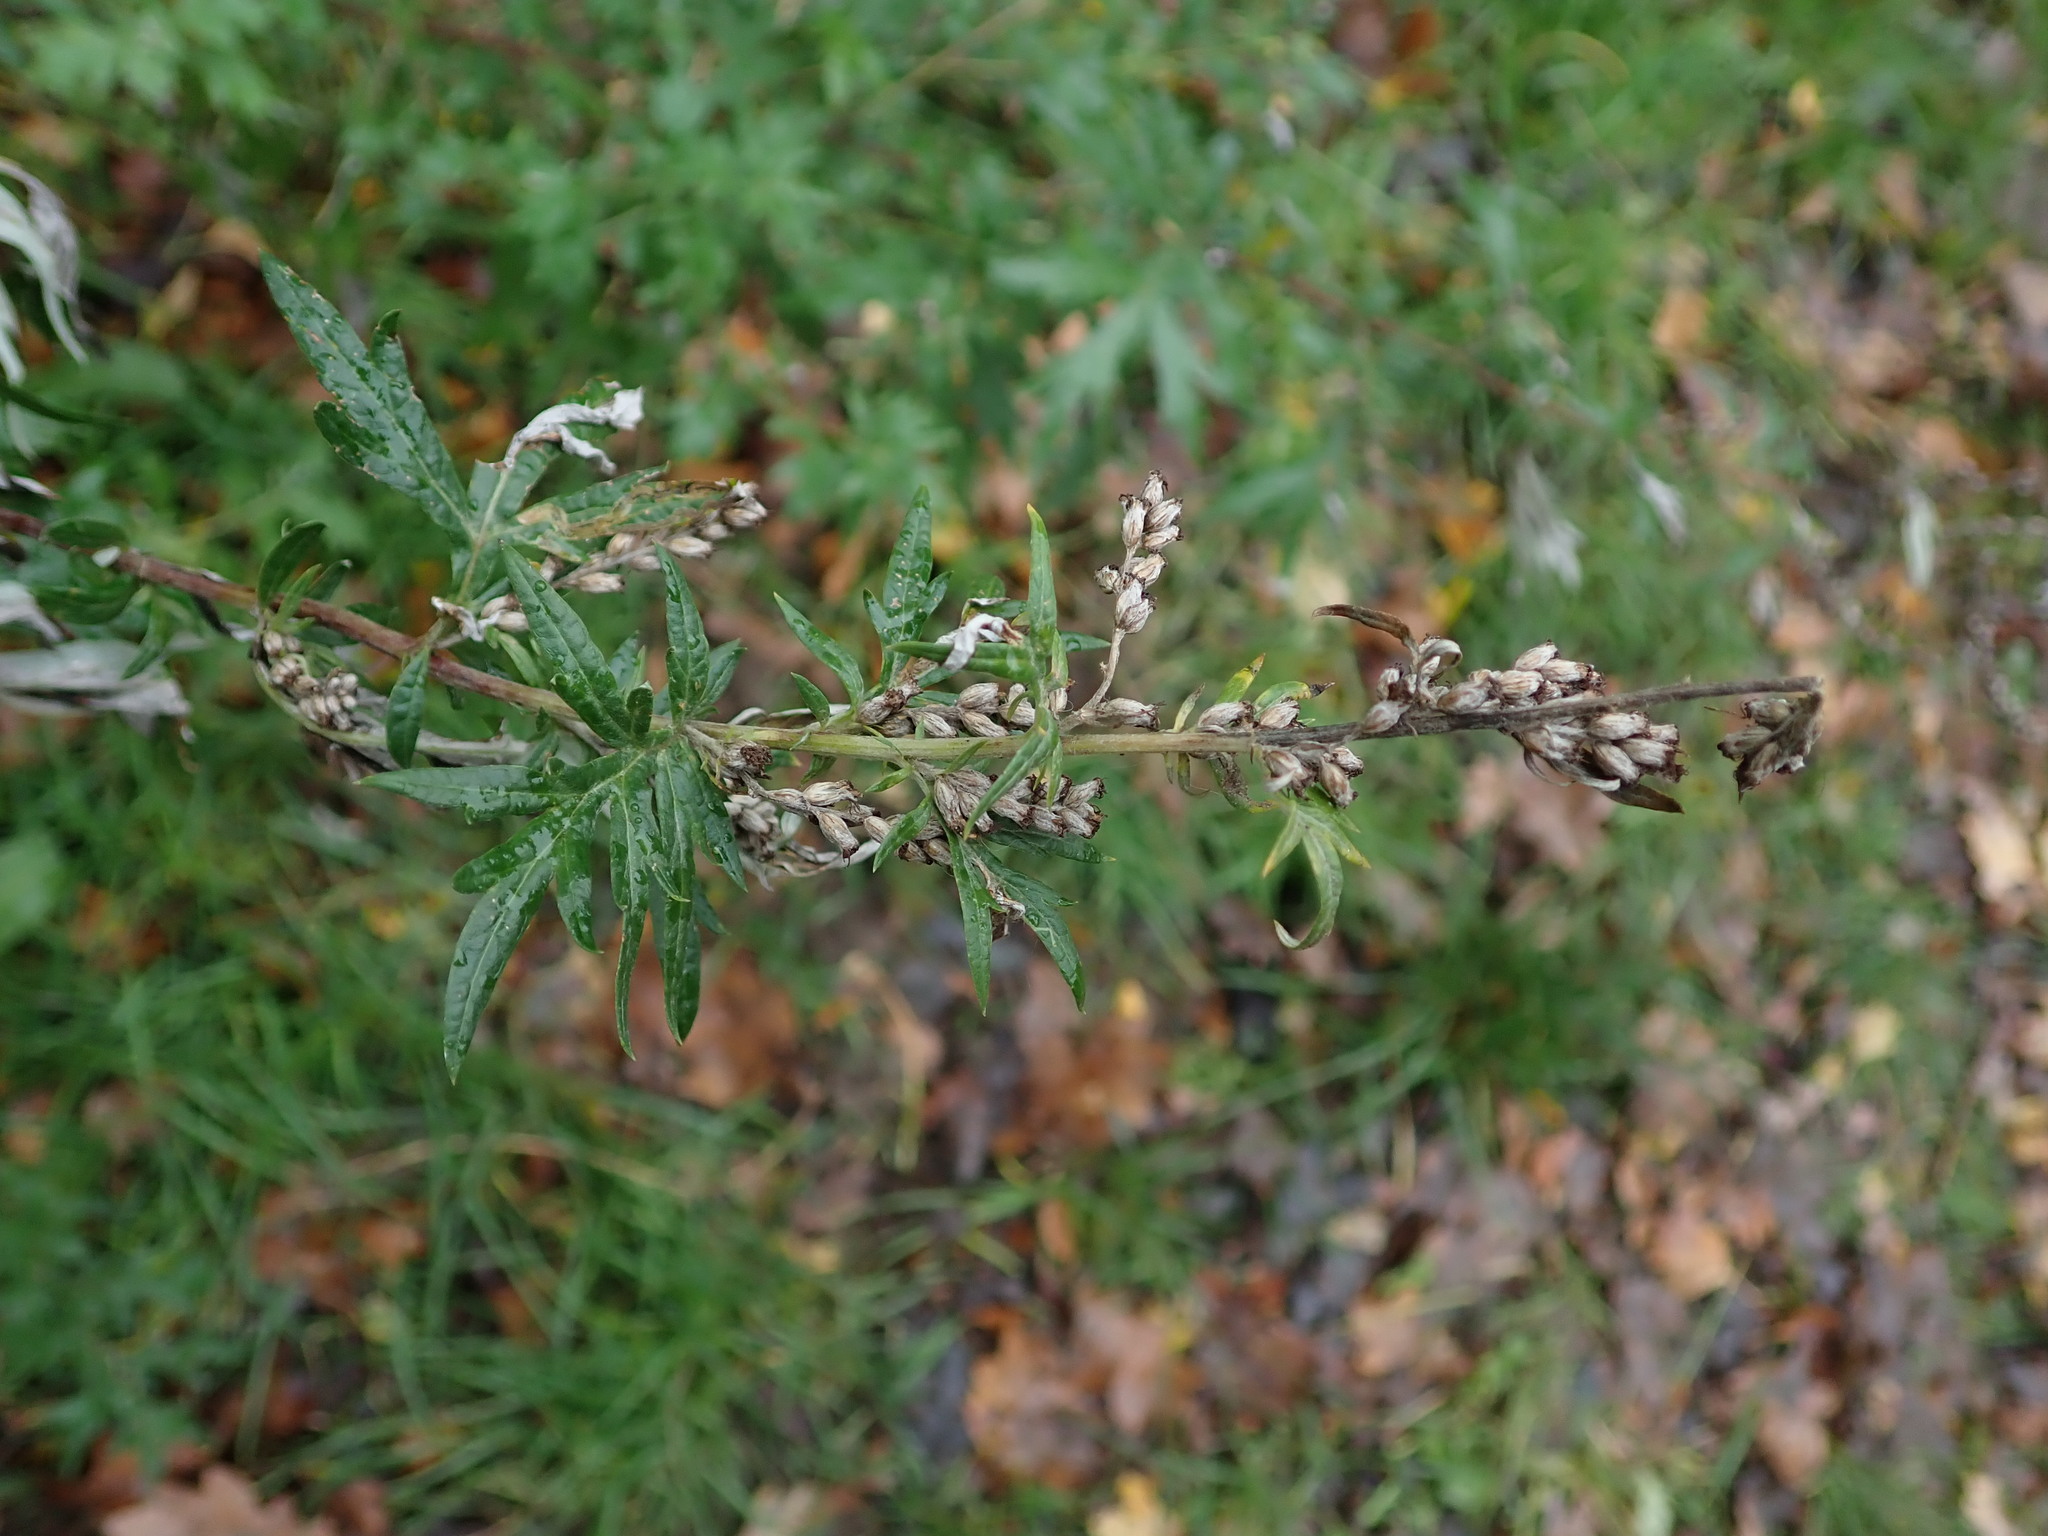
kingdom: Plantae
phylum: Tracheophyta
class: Magnoliopsida
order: Asterales
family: Asteraceae
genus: Artemisia
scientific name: Artemisia vulgaris
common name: Mugwort
